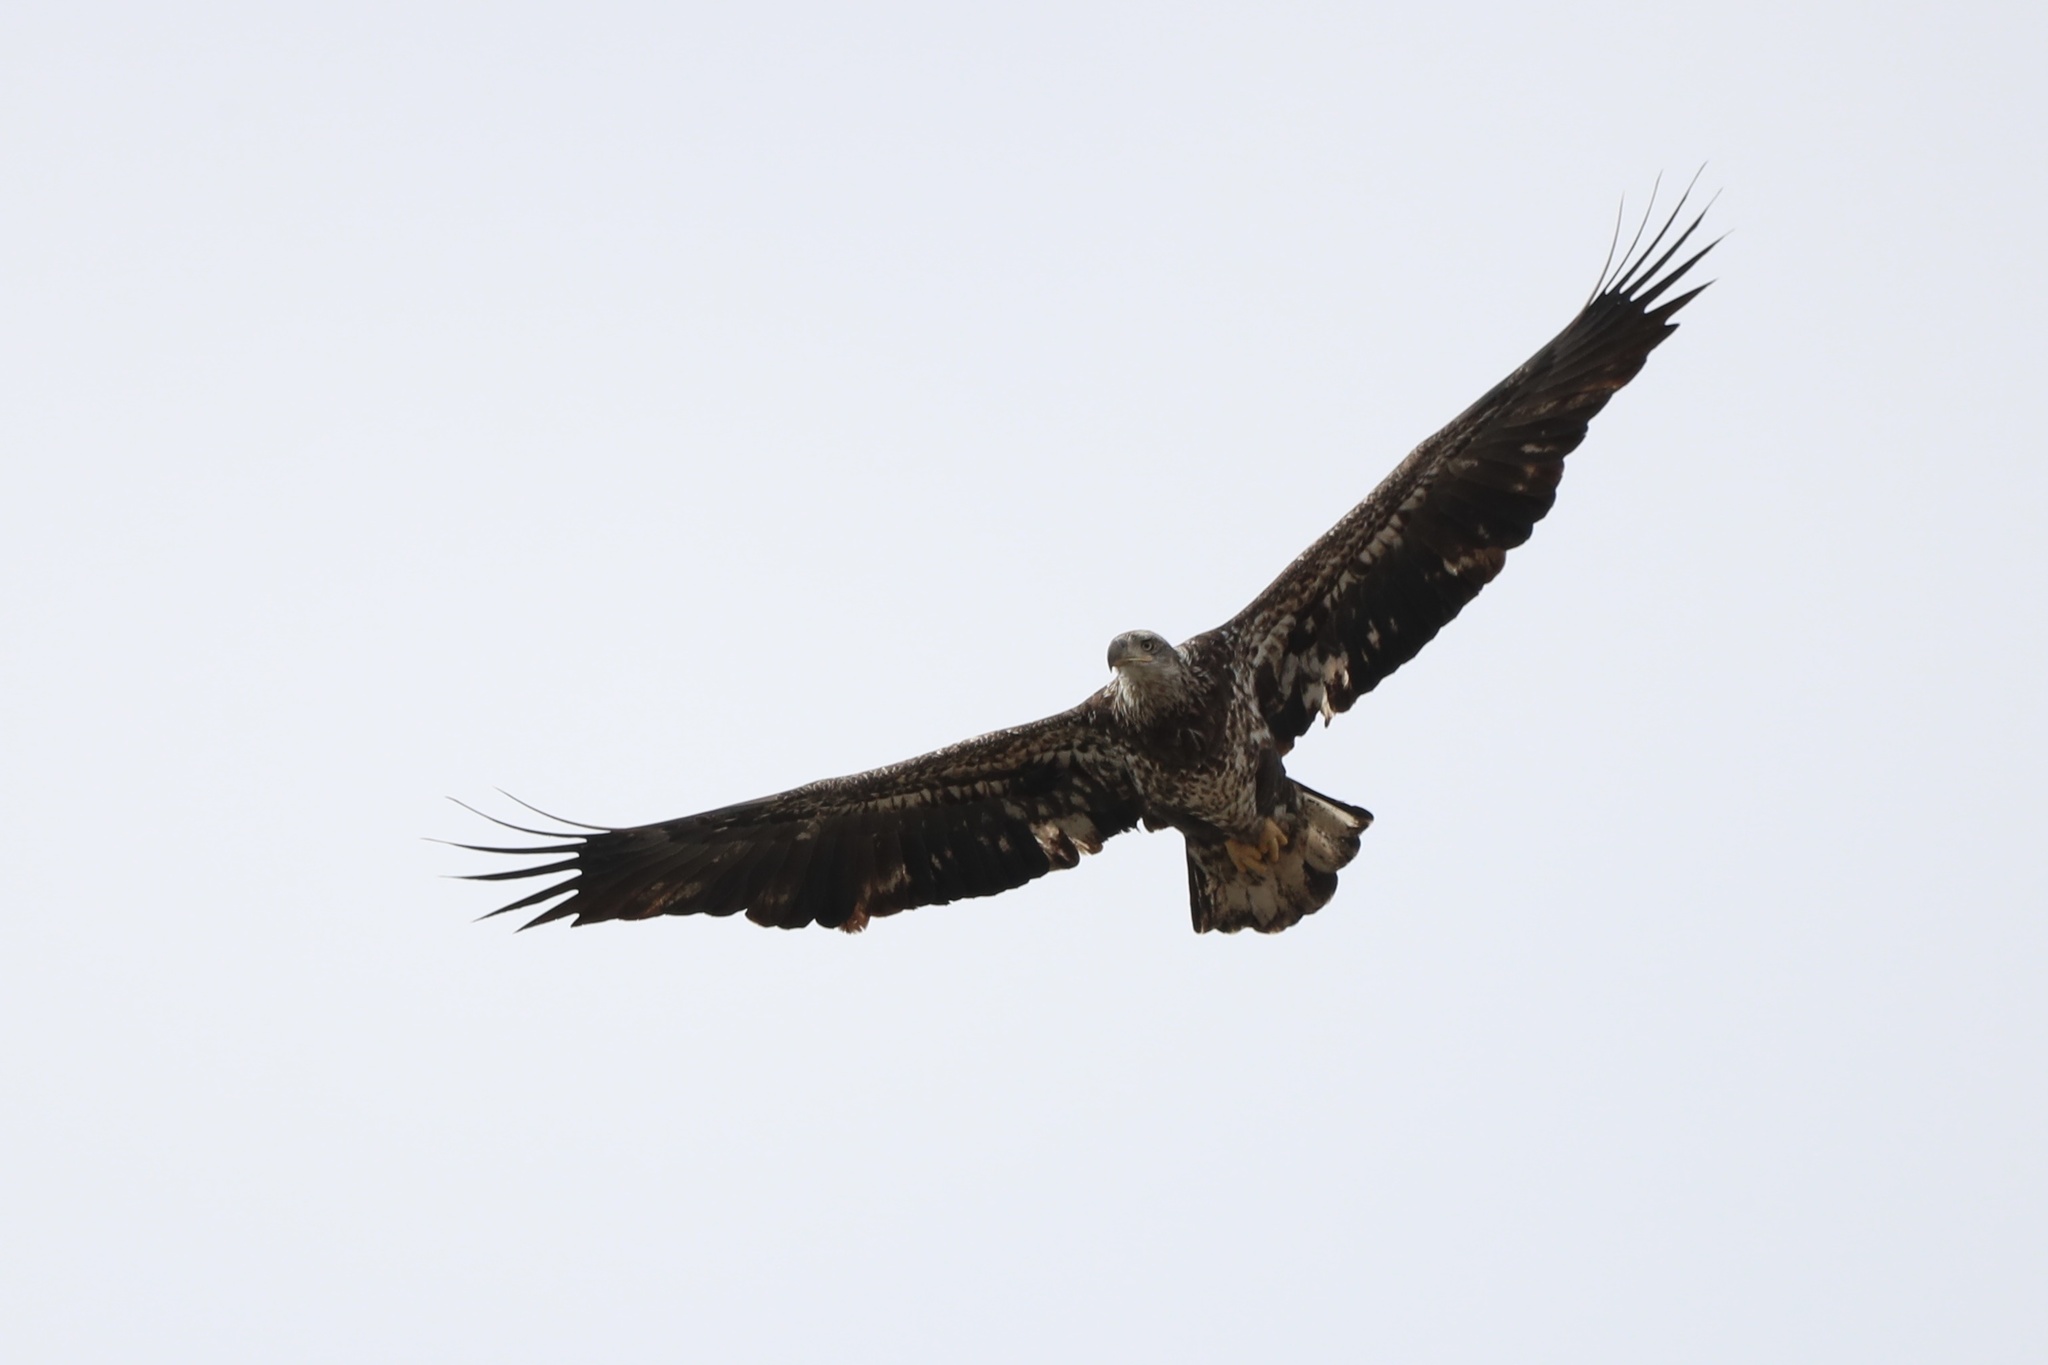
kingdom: Animalia
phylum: Chordata
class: Aves
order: Accipitriformes
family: Accipitridae
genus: Haliaeetus
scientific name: Haliaeetus leucocephalus
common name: Bald eagle
